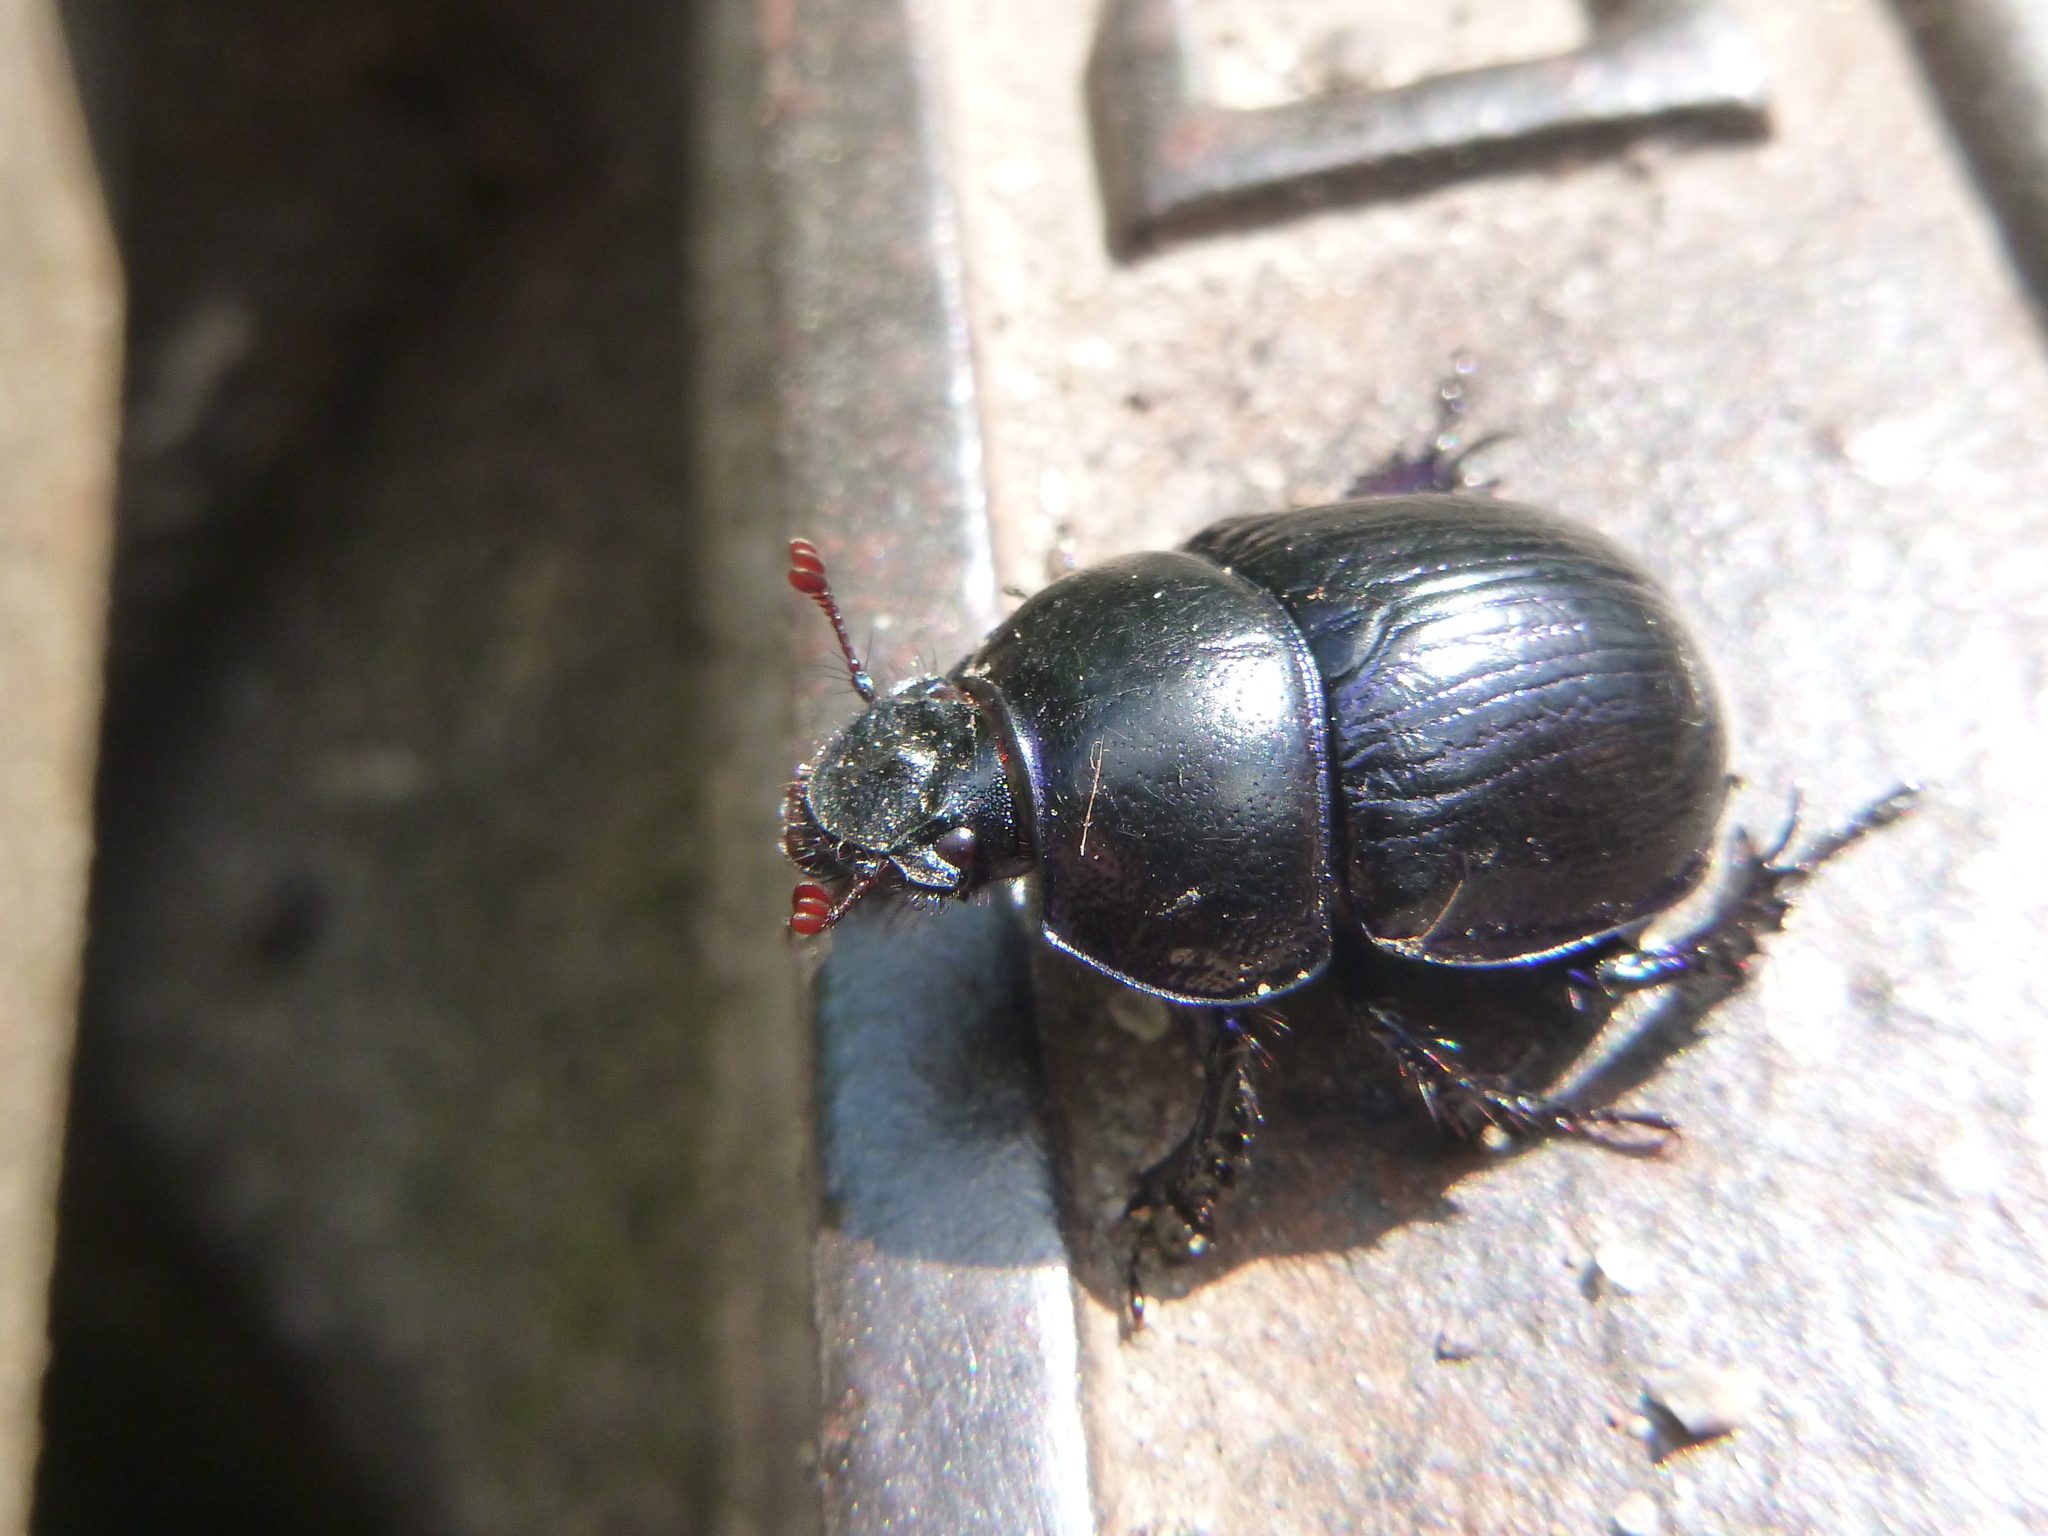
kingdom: Animalia
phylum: Arthropoda
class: Insecta
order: Coleoptera
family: Geotrupidae
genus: Anoplotrupes
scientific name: Anoplotrupes stercorosus
